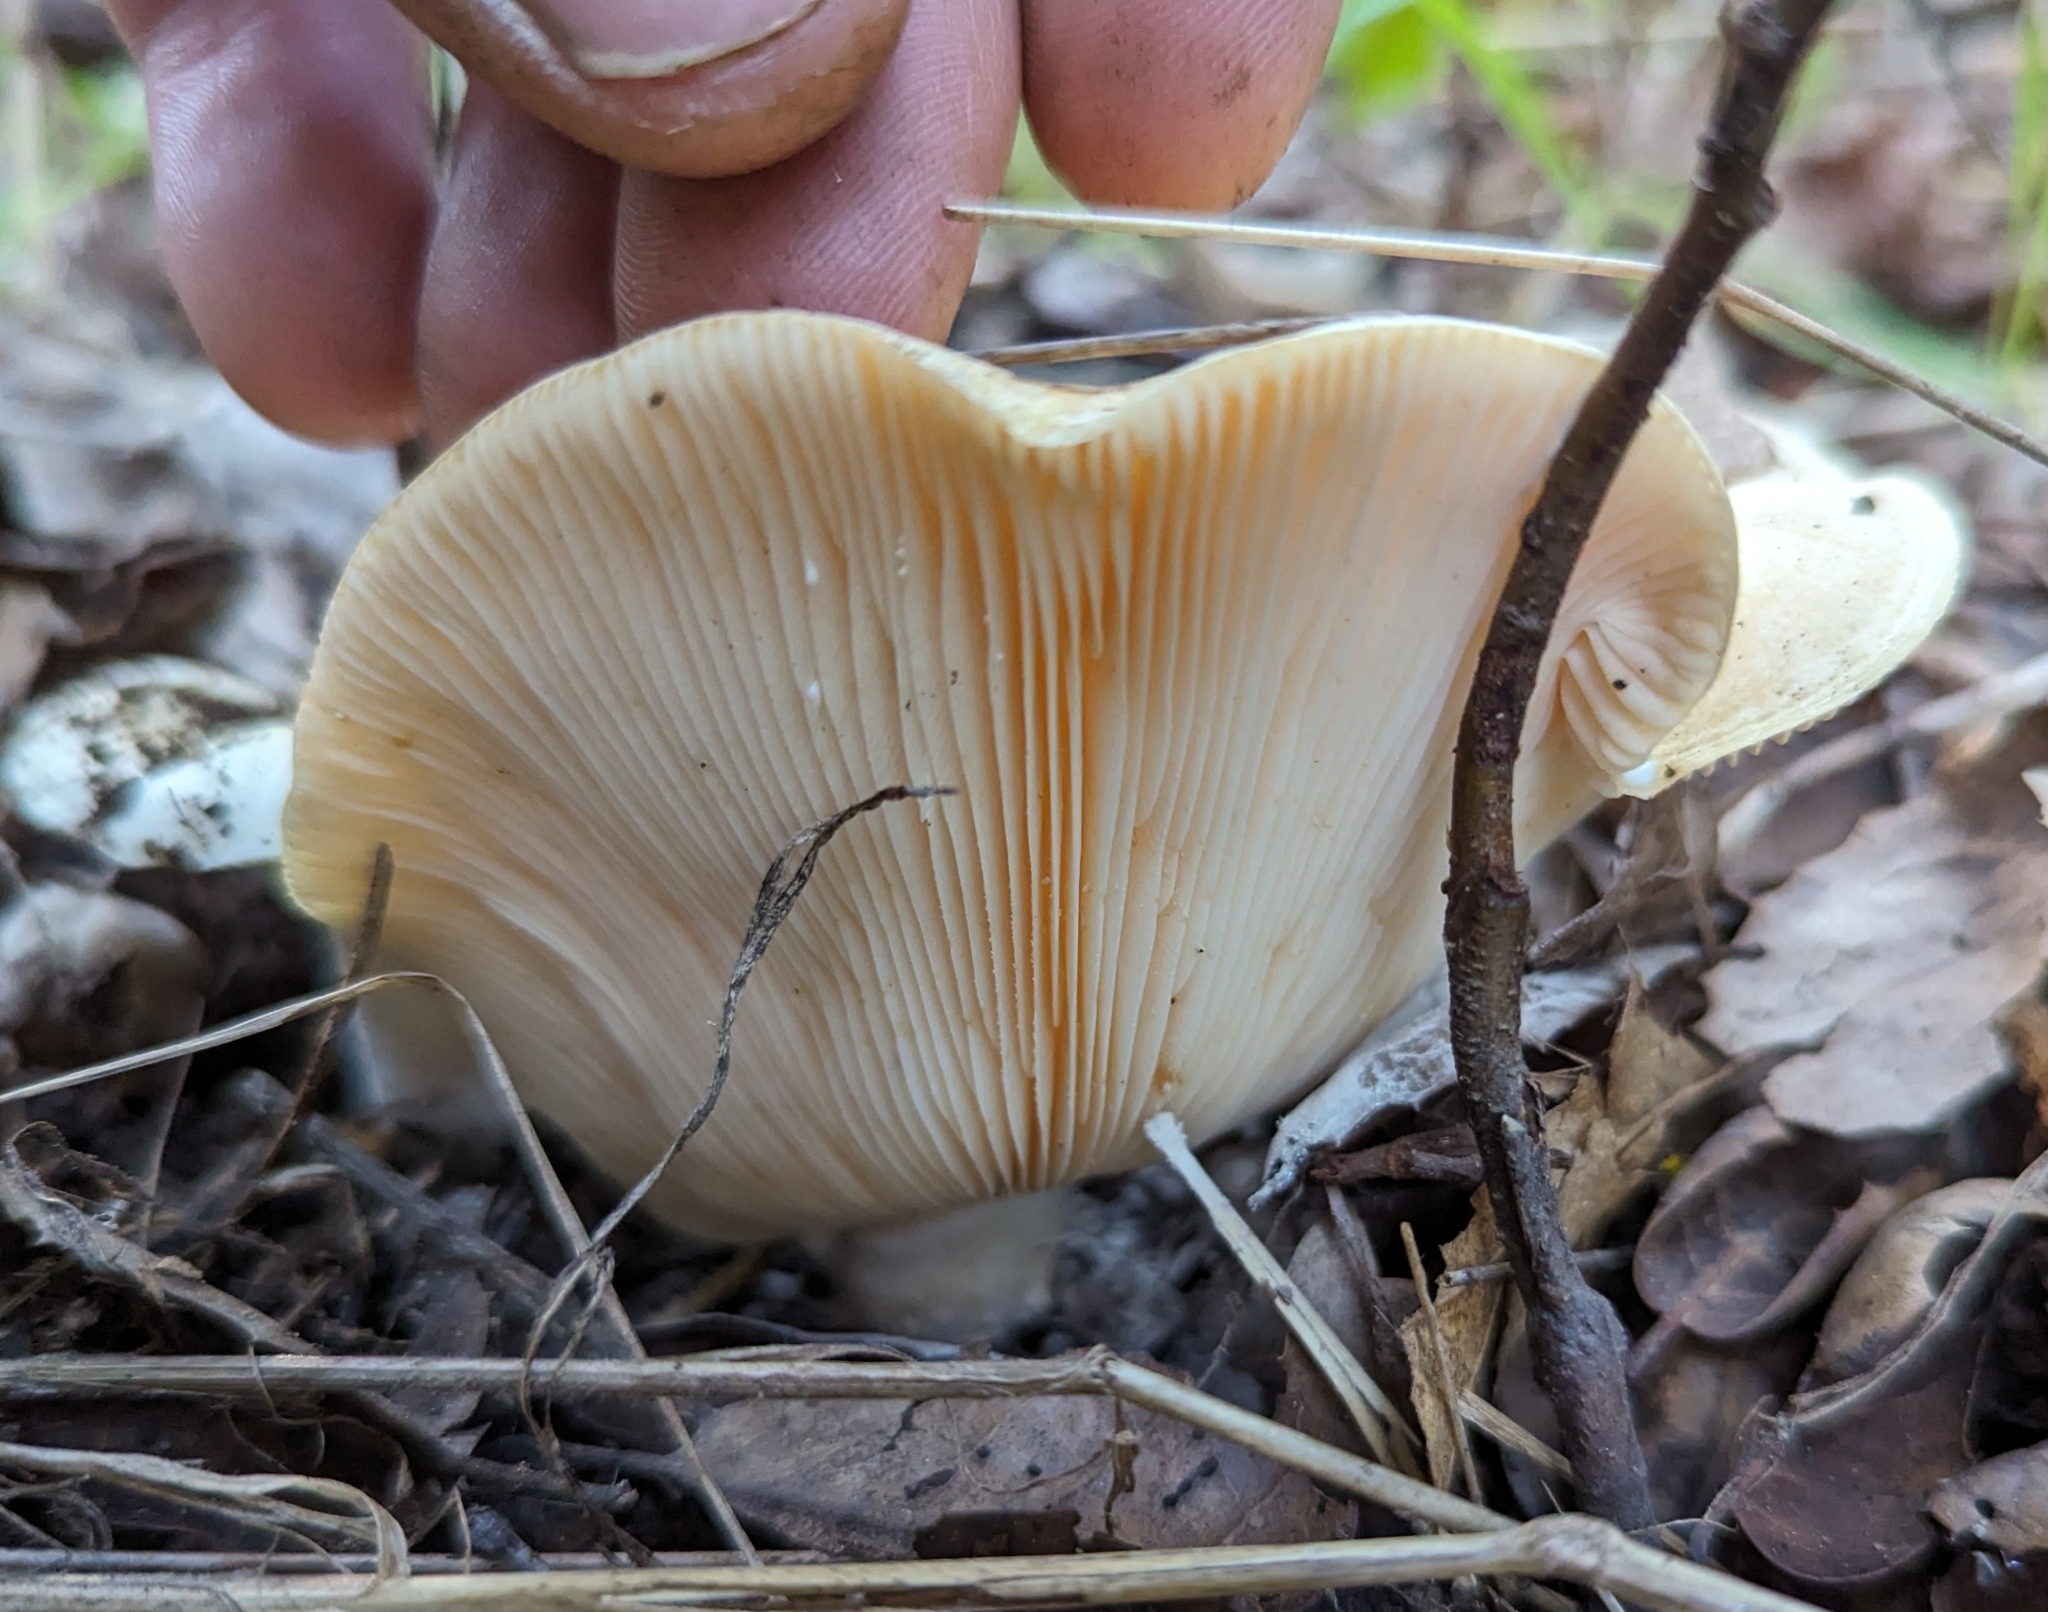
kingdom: Fungi
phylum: Basidiomycota
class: Agaricomycetes
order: Russulales
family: Russulaceae
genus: Lactarius
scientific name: Lactarius alnicola
